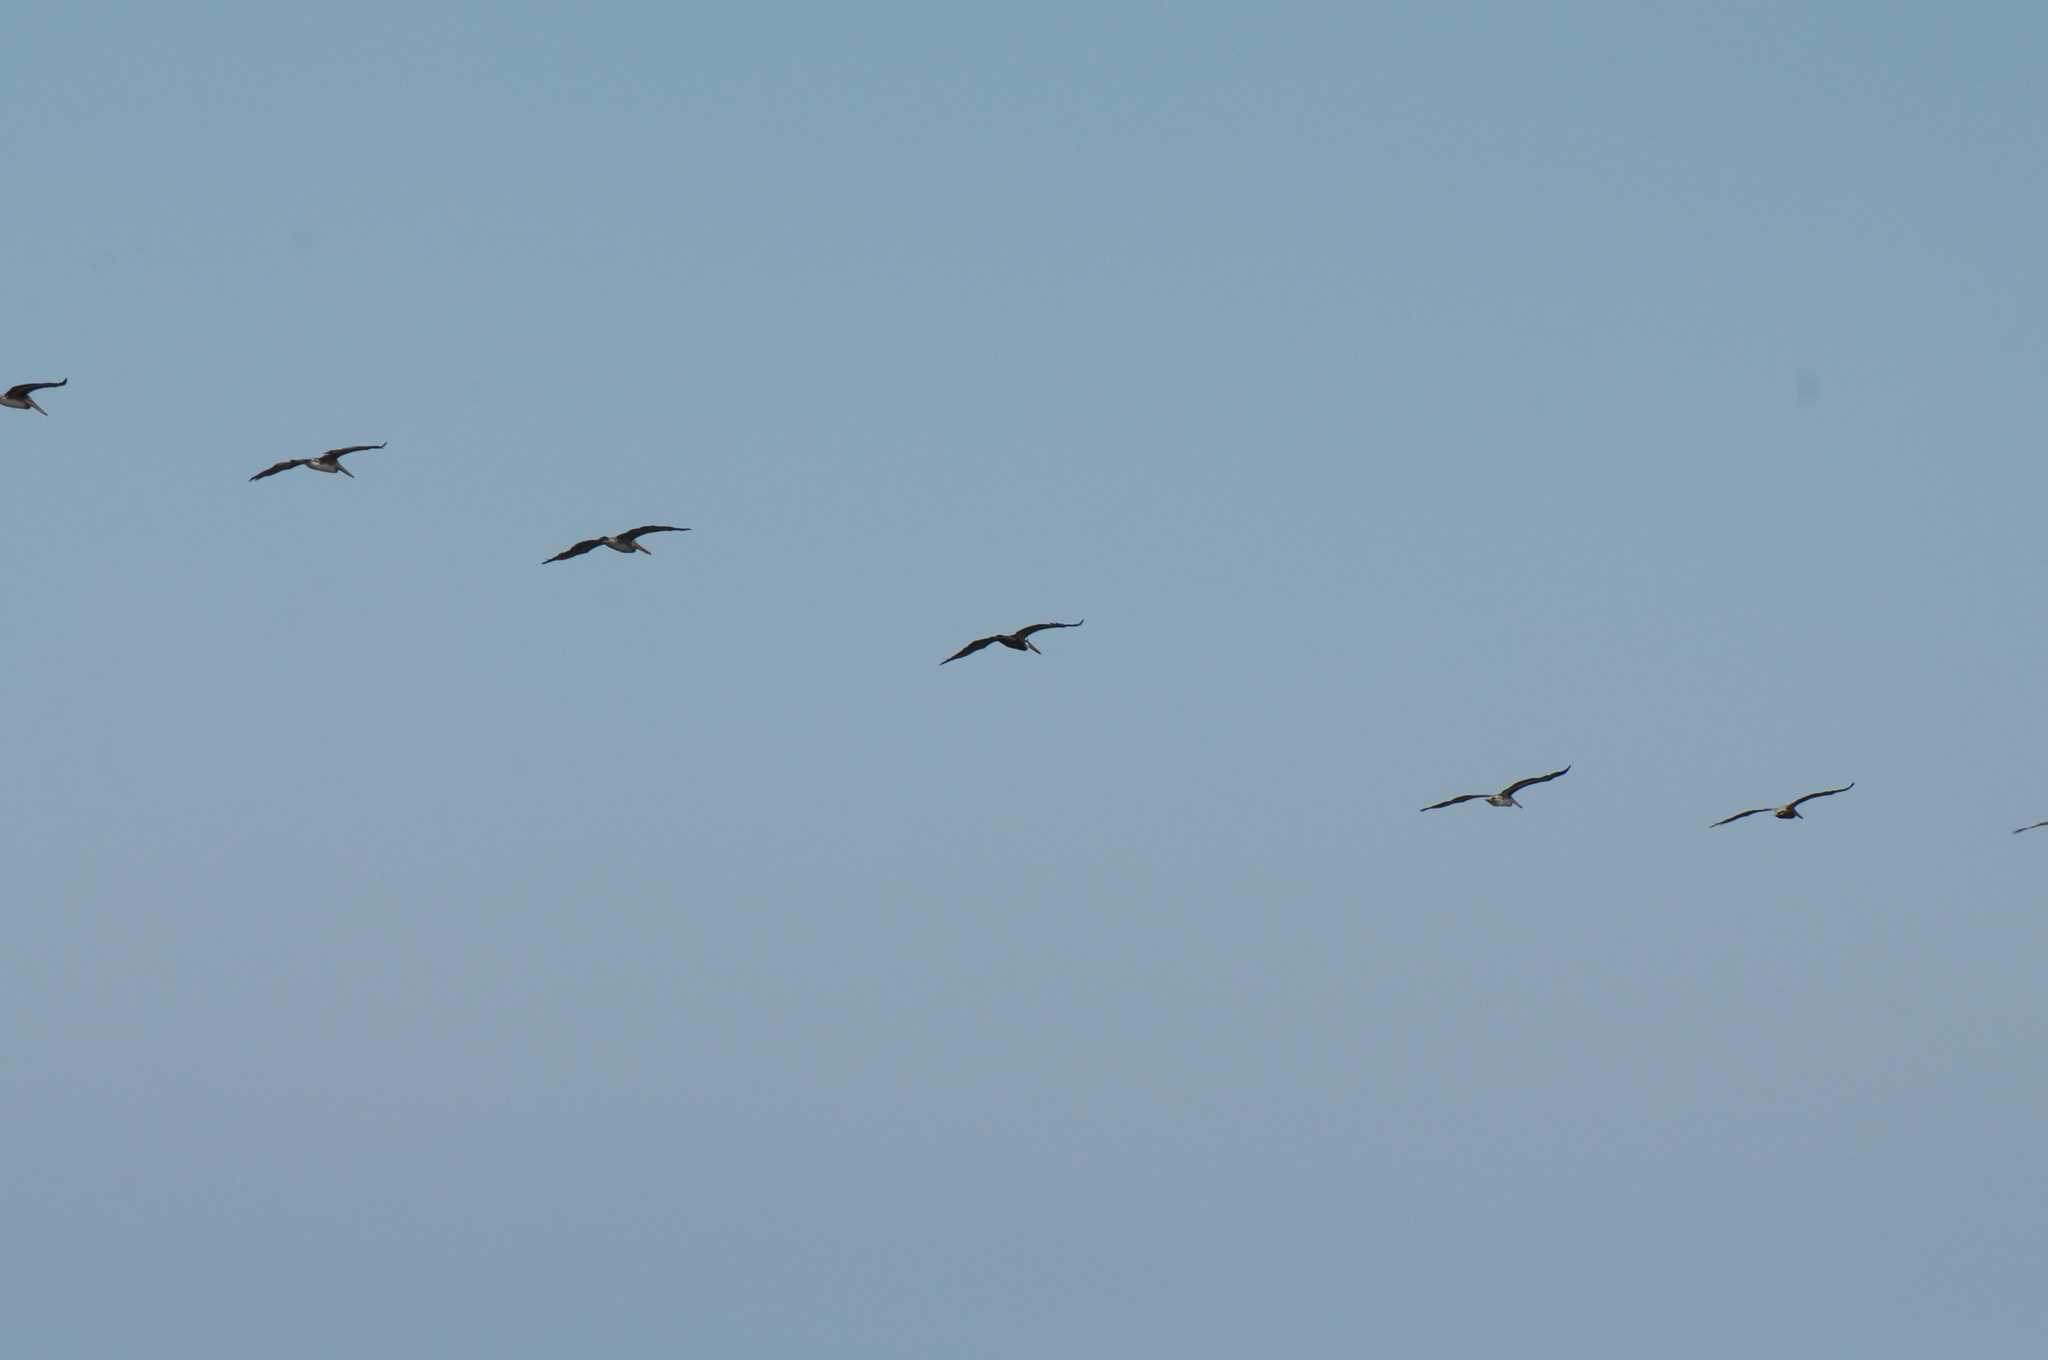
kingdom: Animalia
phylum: Chordata
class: Aves
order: Pelecaniformes
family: Pelecanidae
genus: Pelecanus
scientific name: Pelecanus erythrorhynchos
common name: American white pelican
